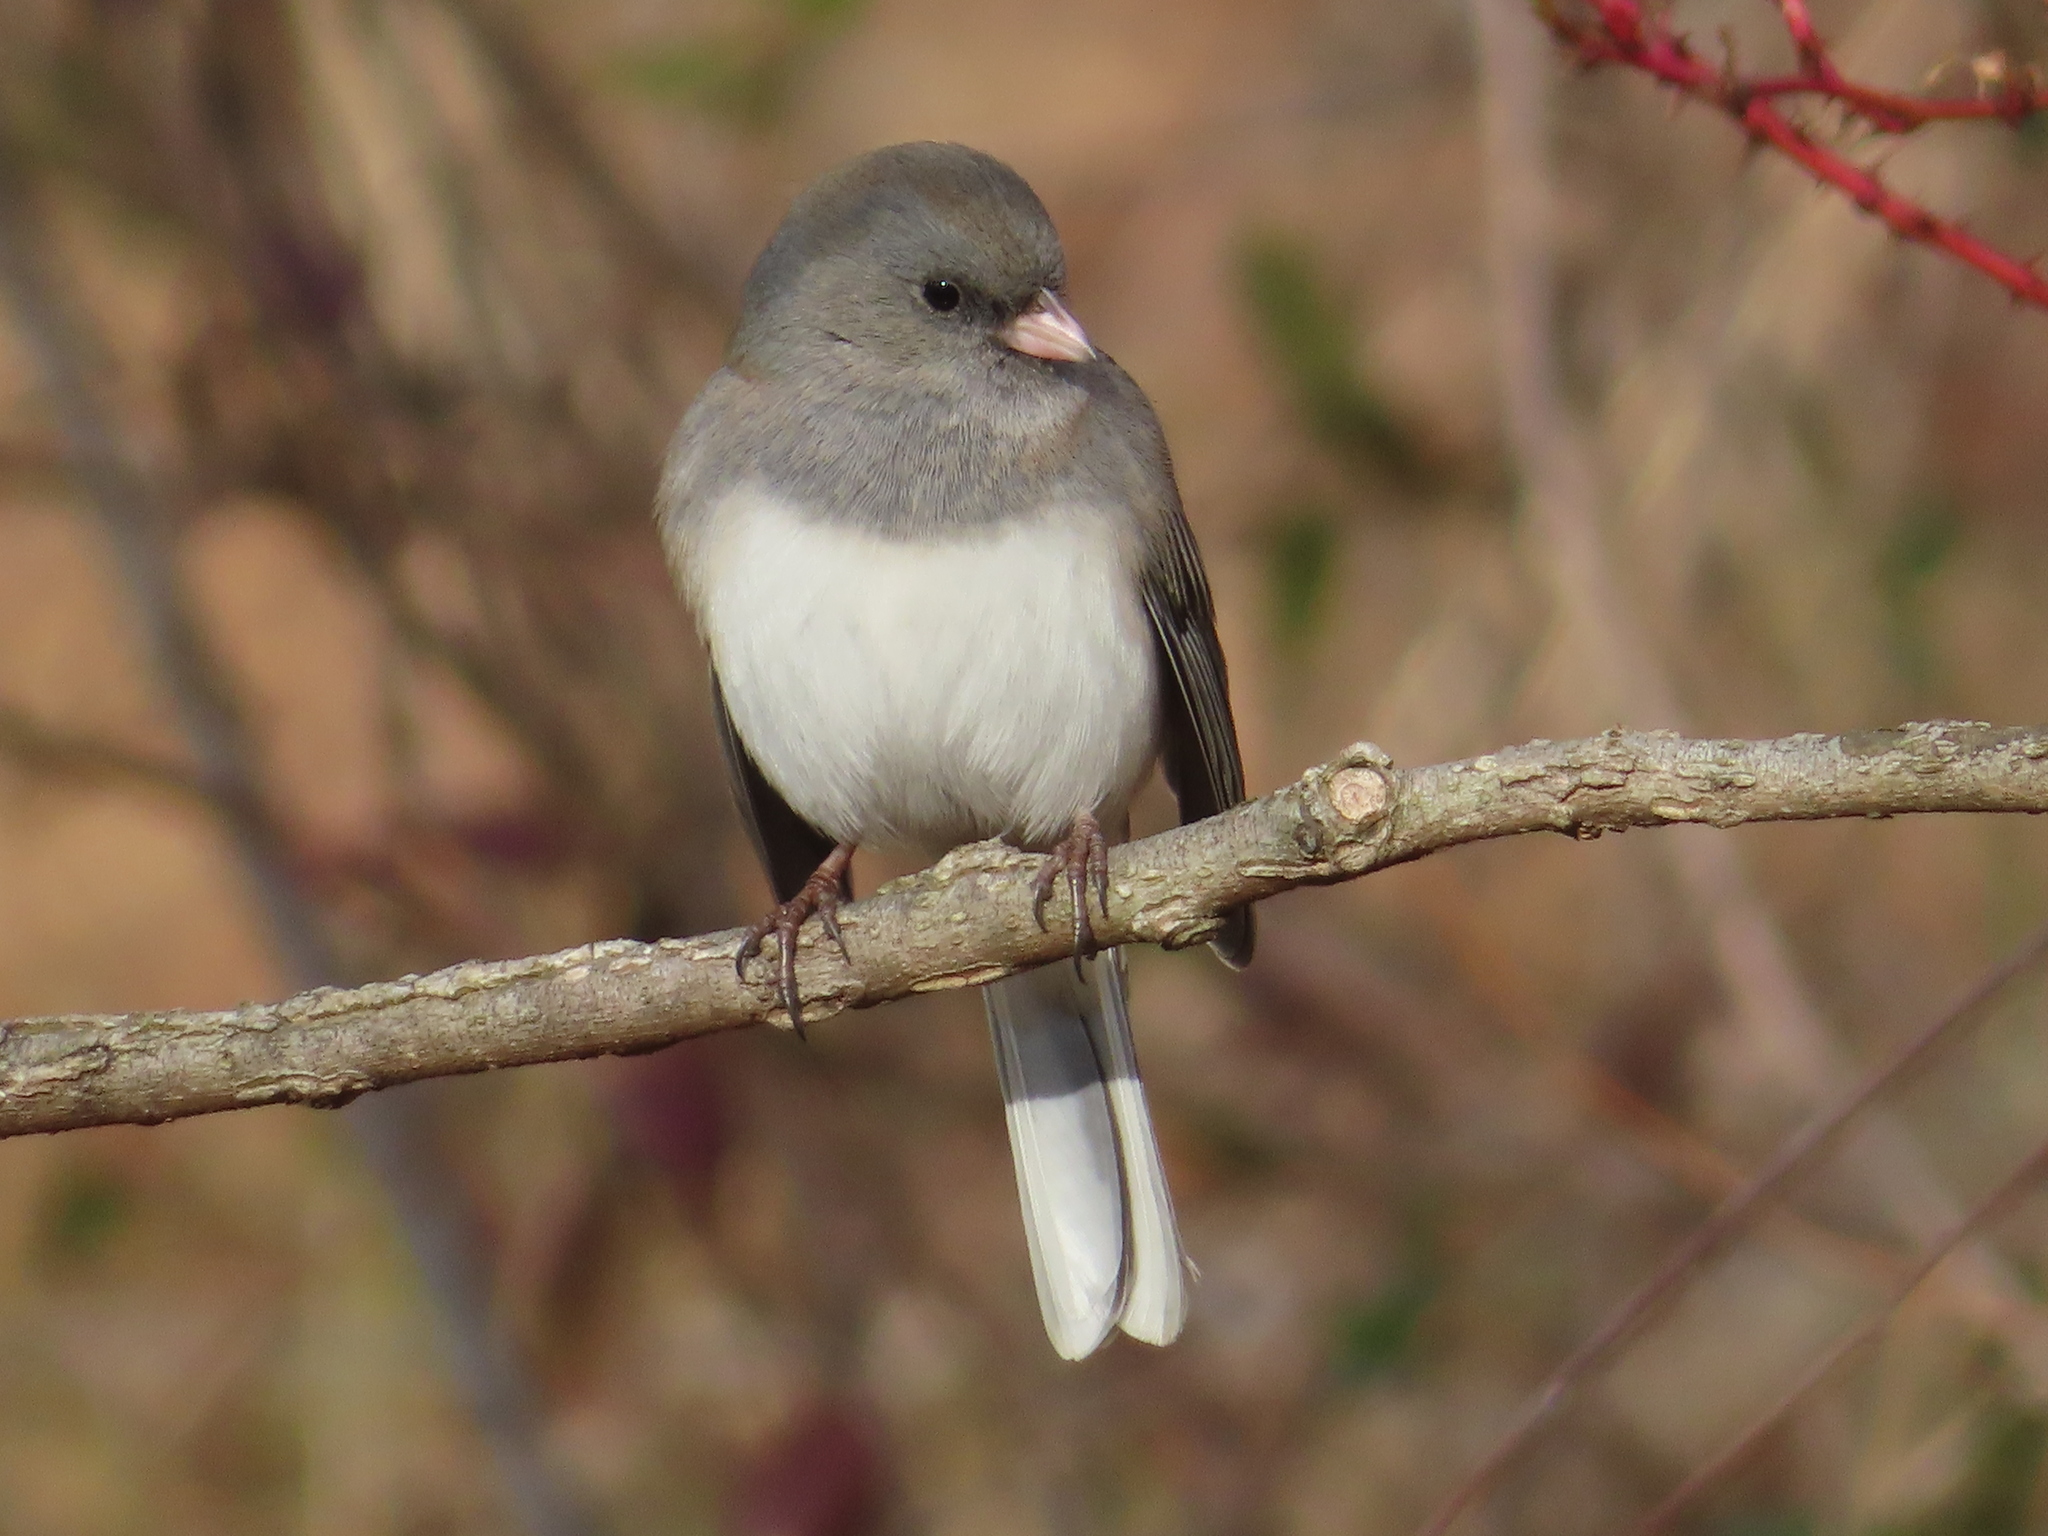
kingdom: Animalia
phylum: Chordata
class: Aves
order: Passeriformes
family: Passerellidae
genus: Junco
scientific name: Junco hyemalis
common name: Dark-eyed junco
